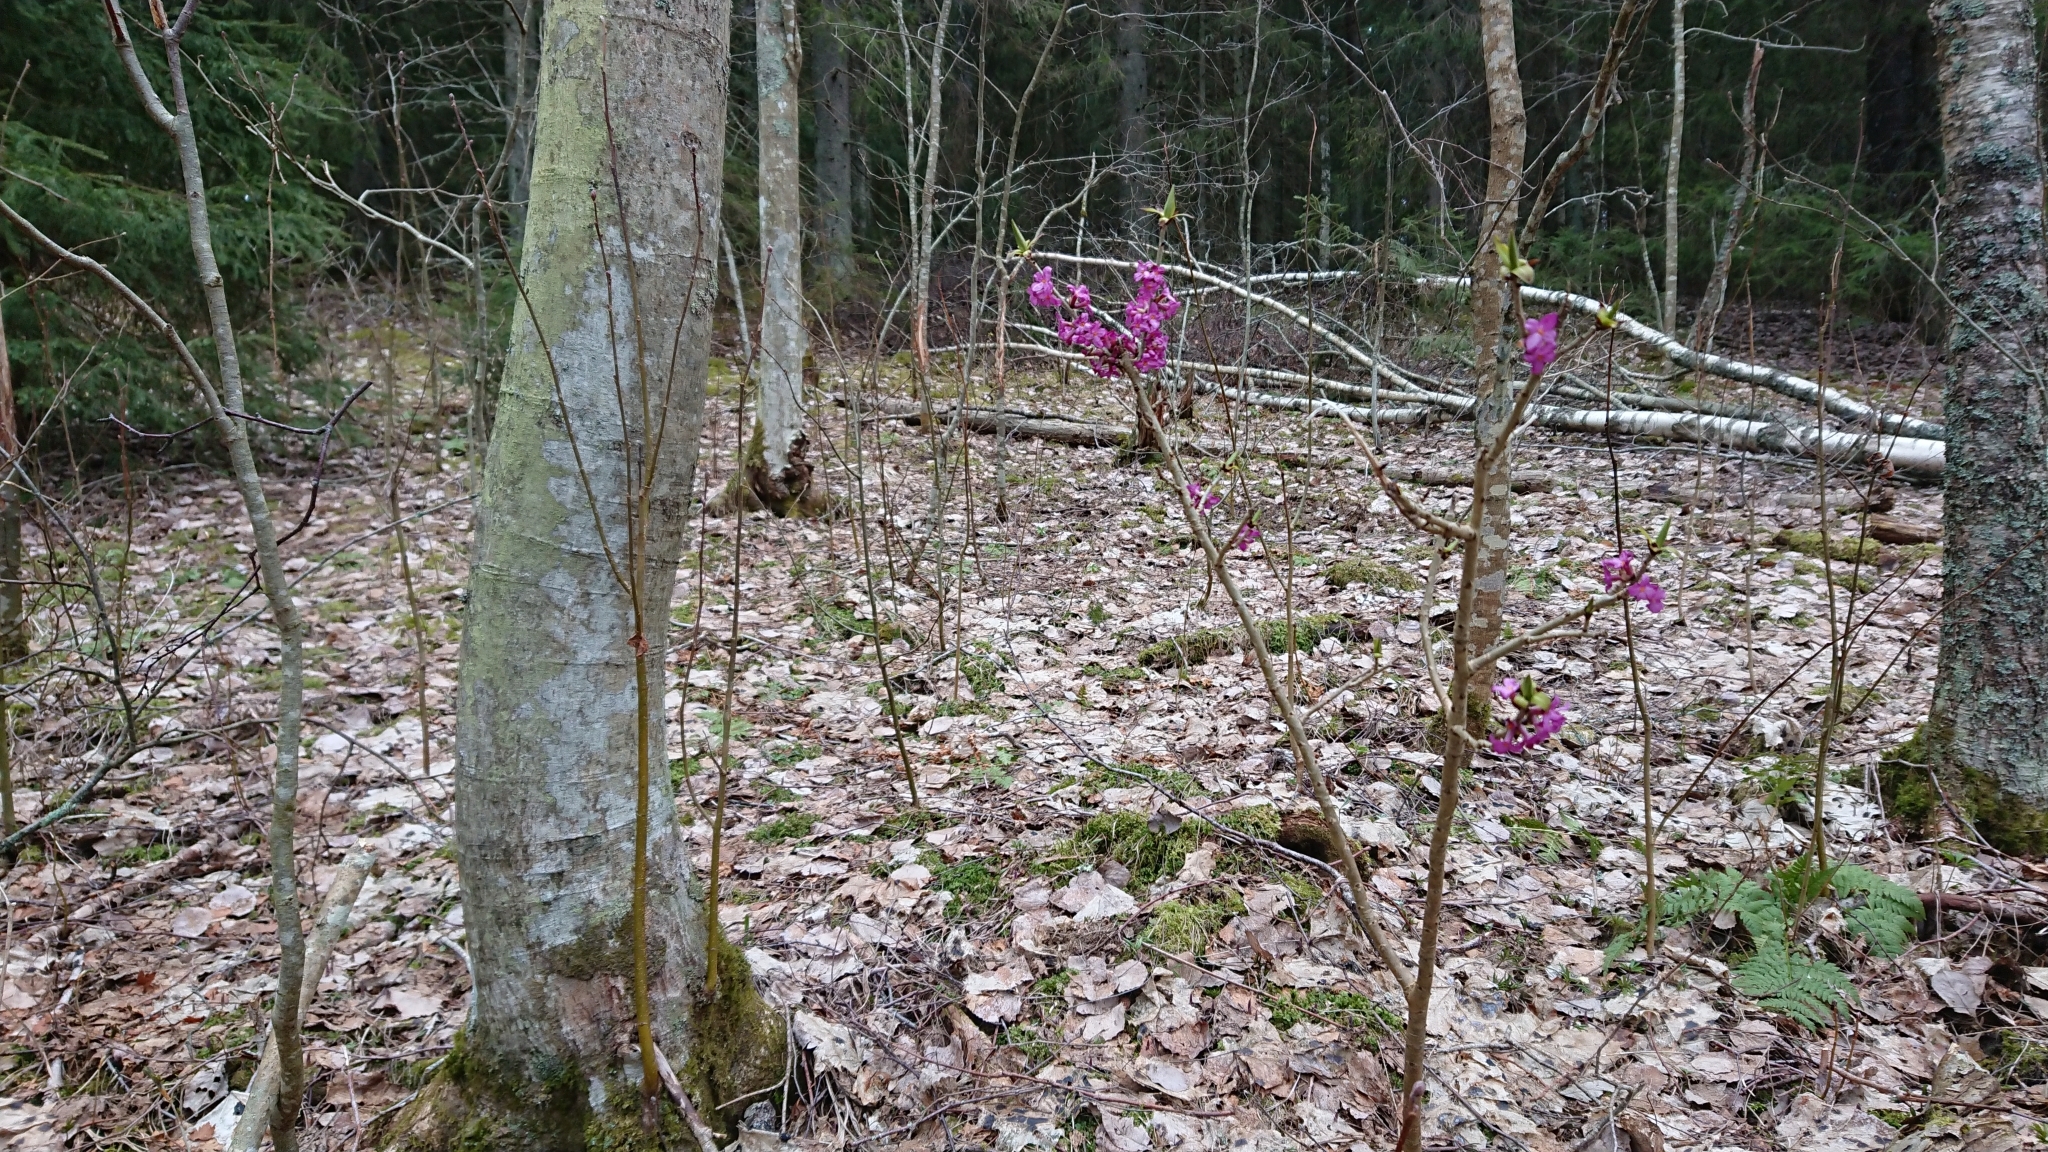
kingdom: Plantae
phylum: Tracheophyta
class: Magnoliopsida
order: Malvales
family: Thymelaeaceae
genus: Daphne
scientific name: Daphne mezereum
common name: Mezereon
